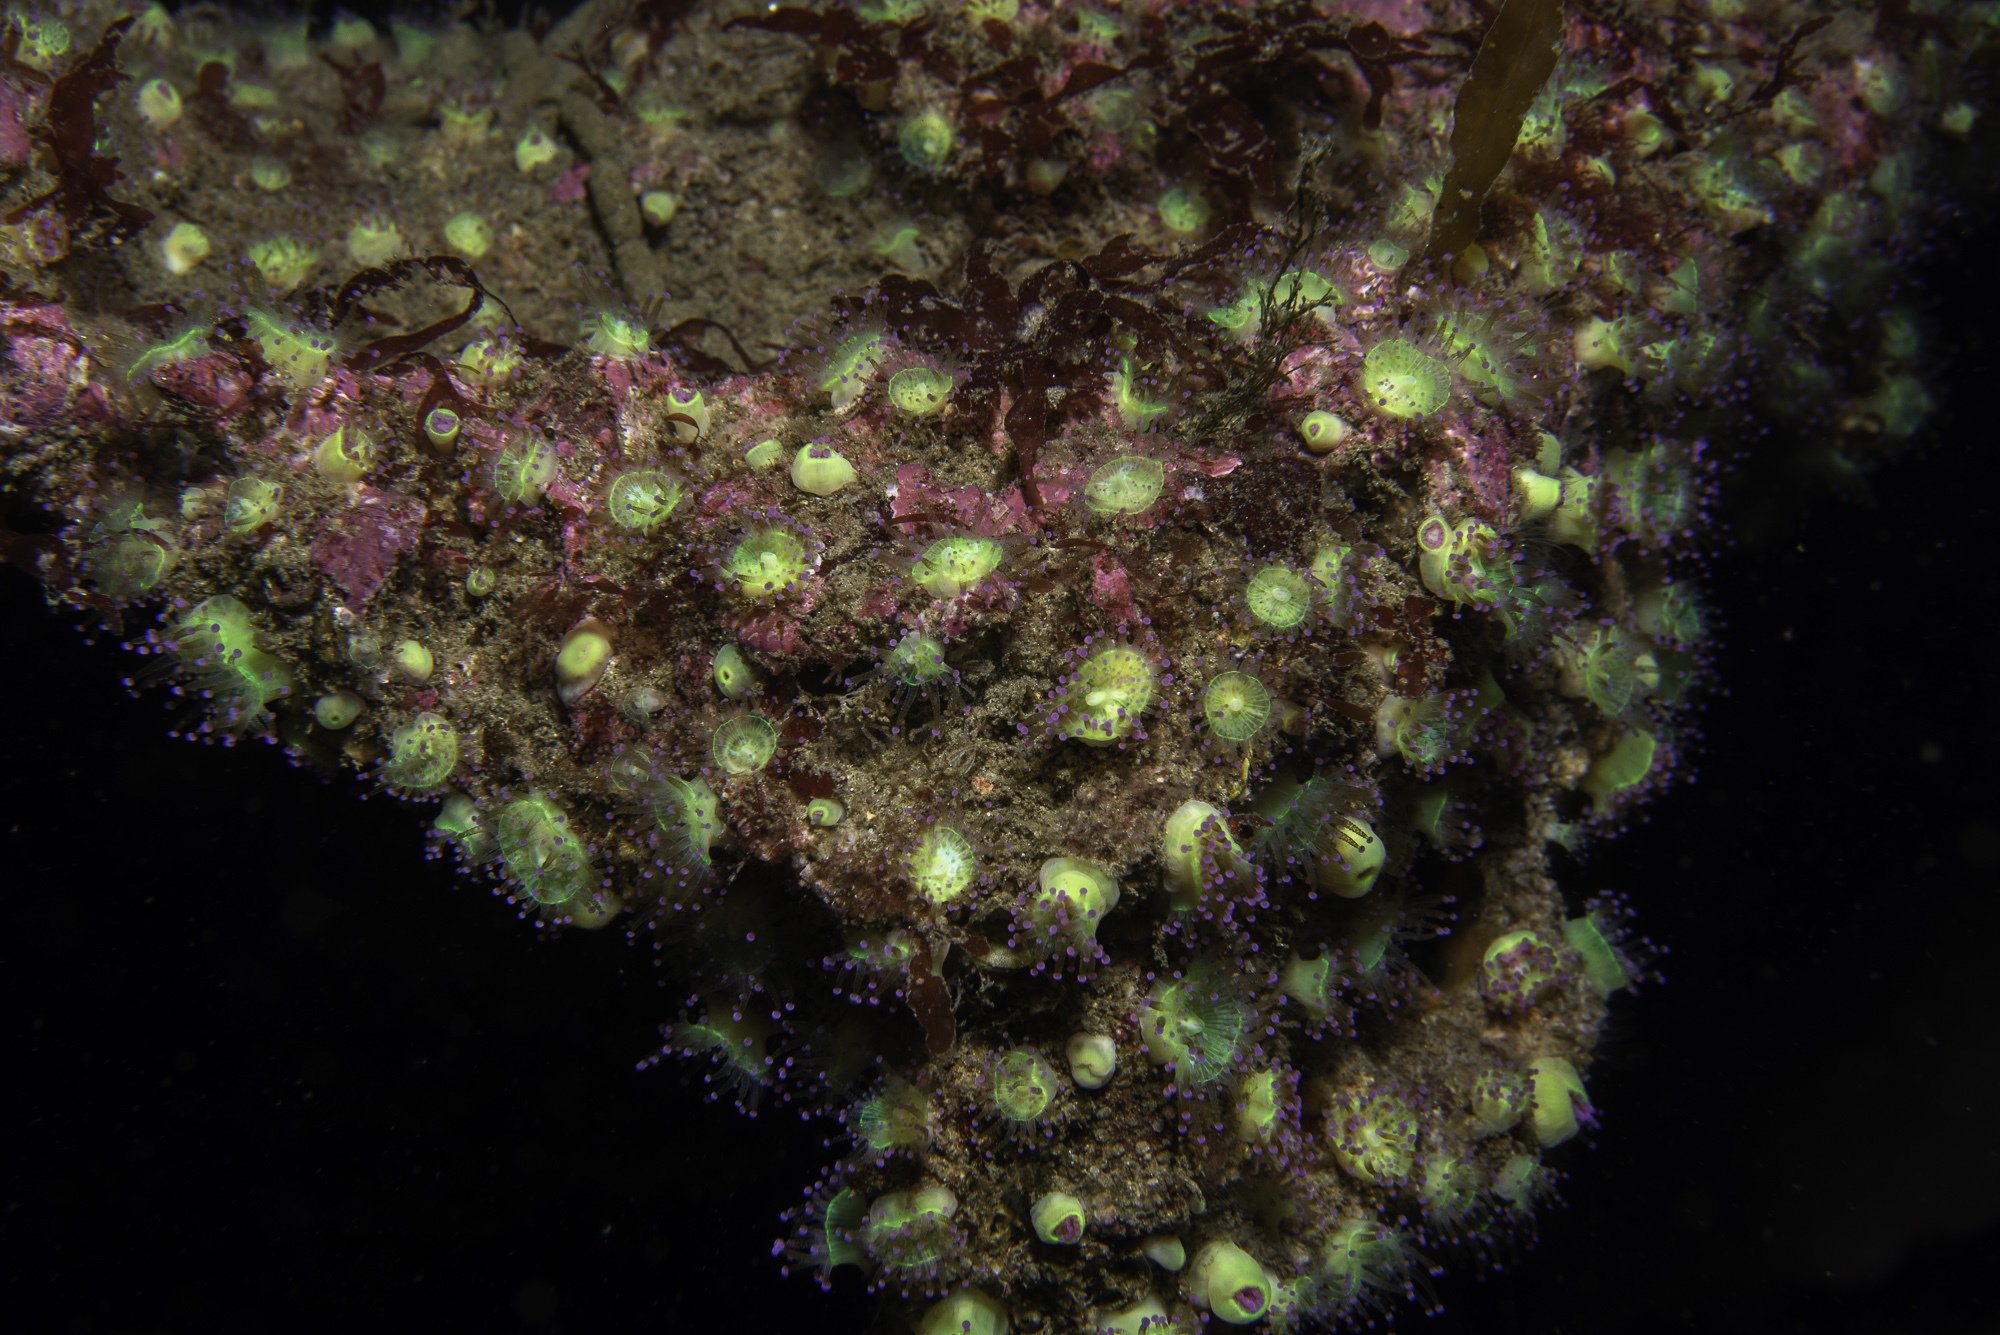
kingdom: Animalia
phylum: Cnidaria
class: Anthozoa
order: Corallimorpharia
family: Corallimorphidae
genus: Corynactis
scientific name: Corynactis viridis
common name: Jewel anemone
